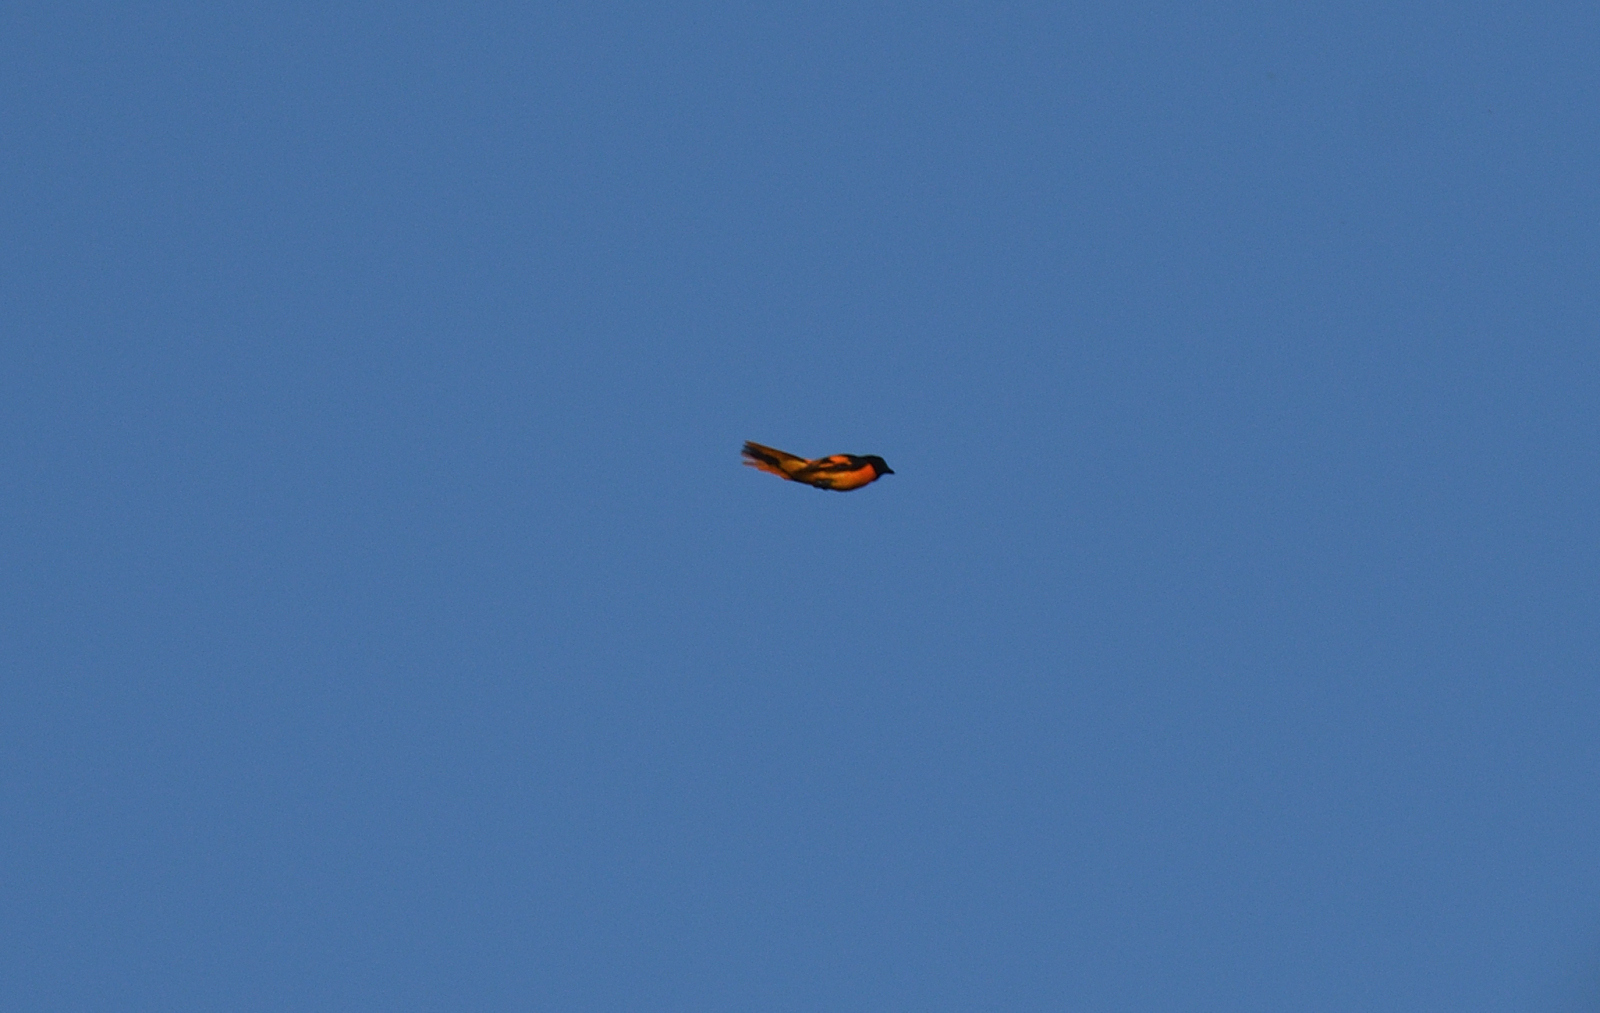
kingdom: Animalia
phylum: Chordata
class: Aves
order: Passeriformes
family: Campephagidae
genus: Pericrocotus
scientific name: Pericrocotus flammeus
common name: Orange minivet
